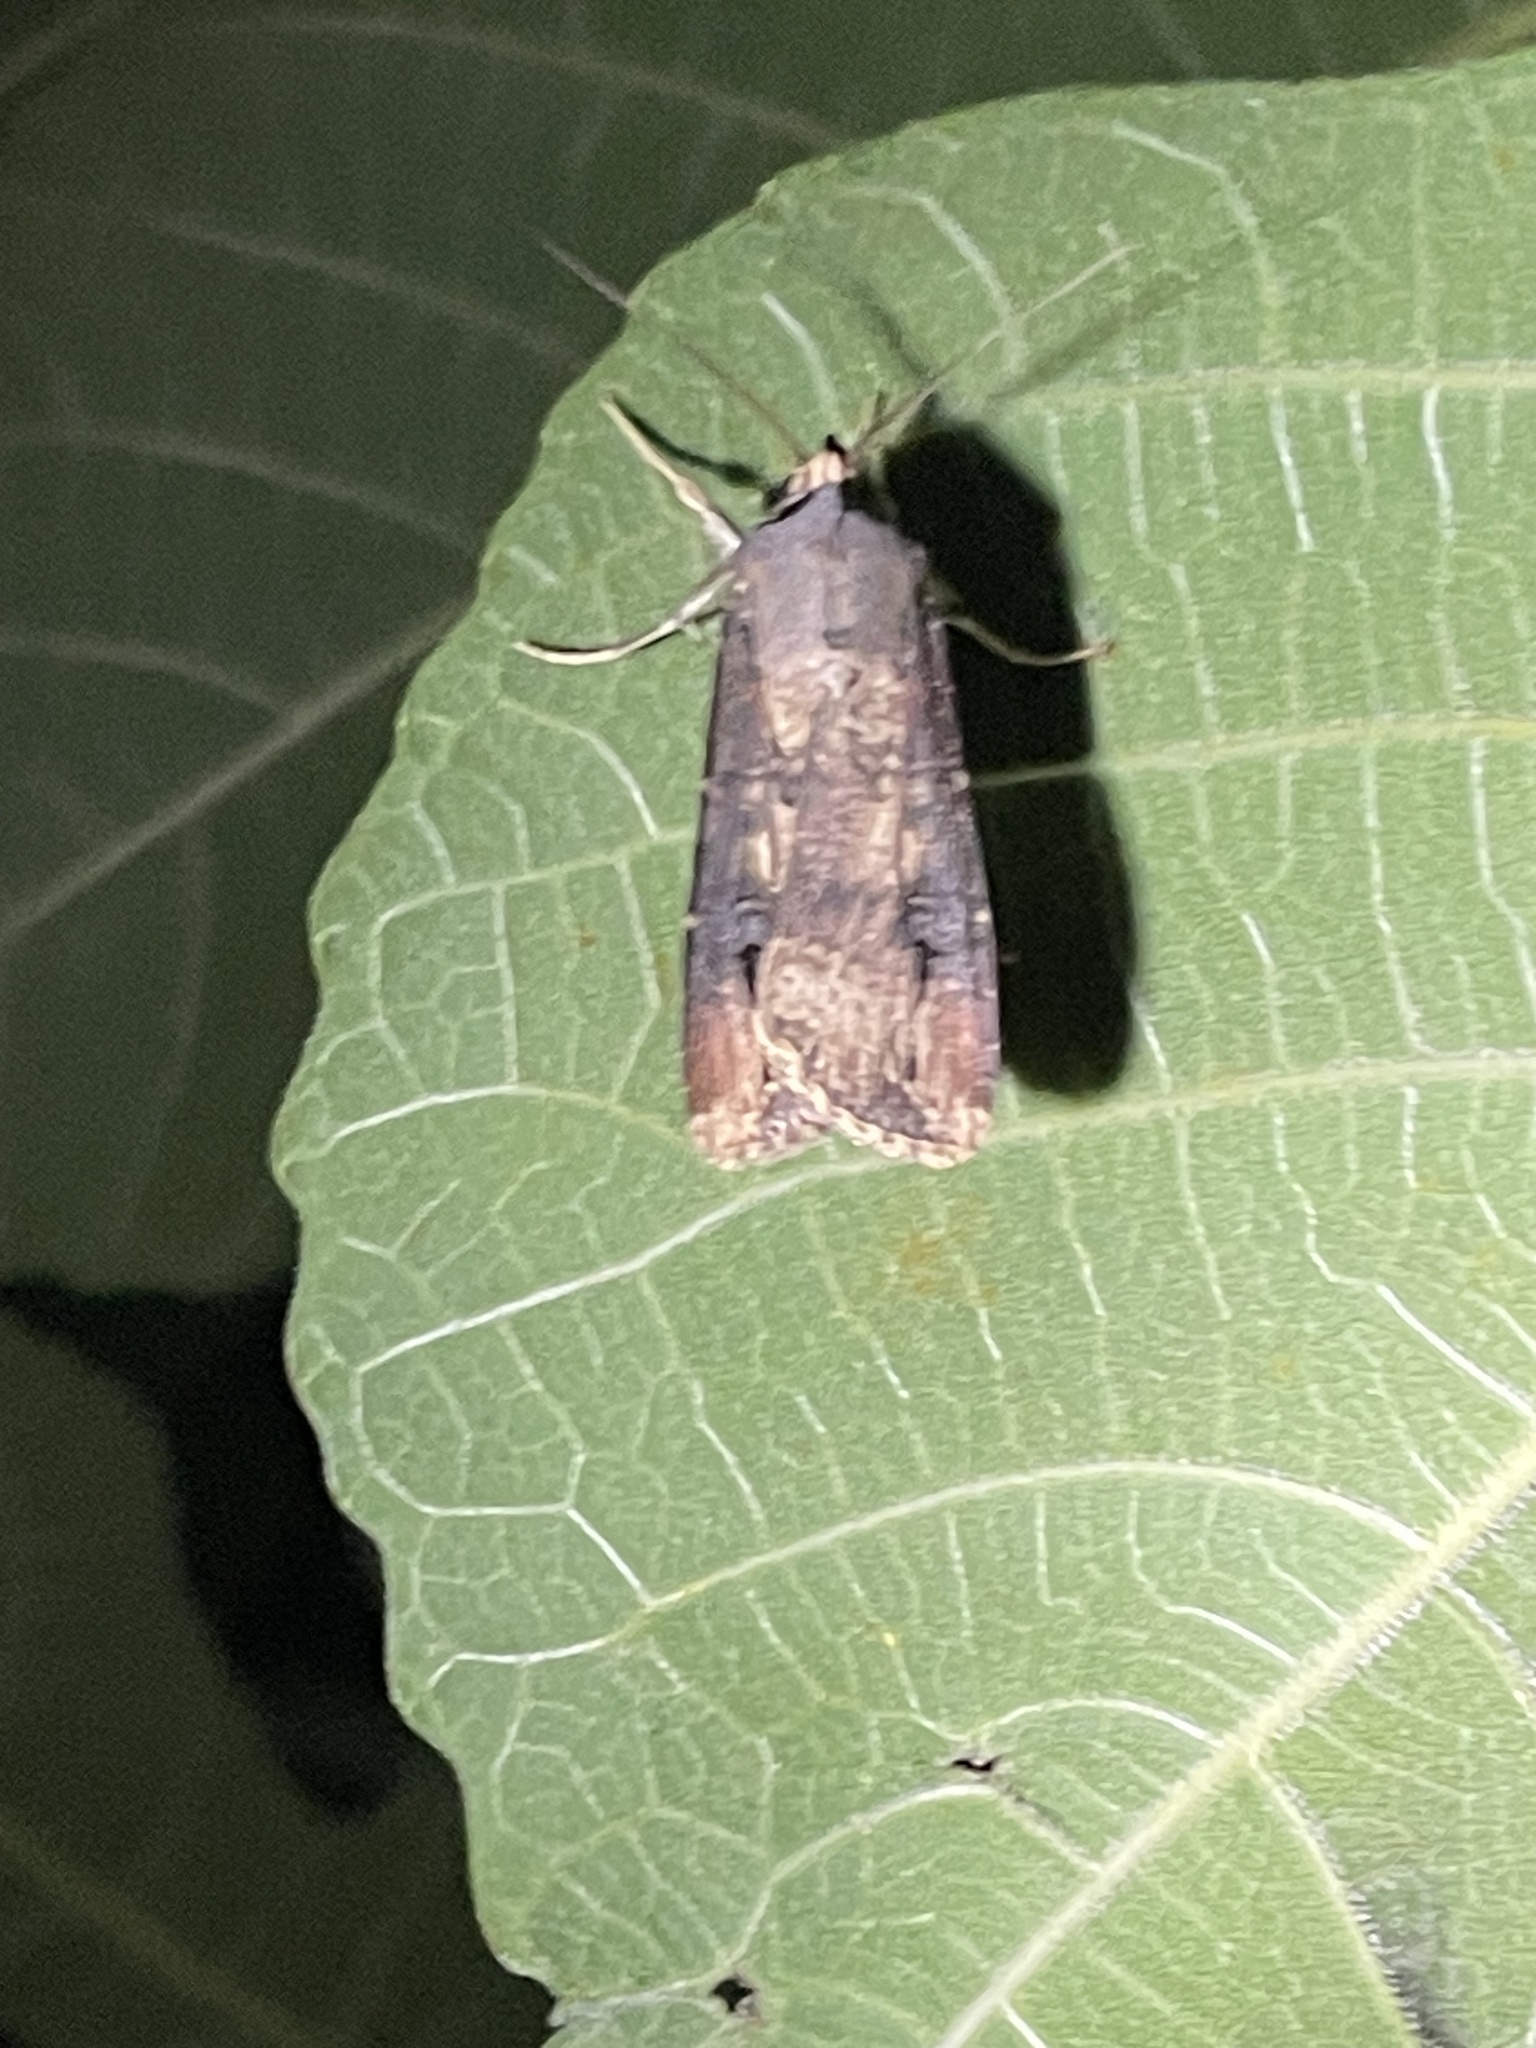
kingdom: Animalia
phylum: Arthropoda
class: Insecta
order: Lepidoptera
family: Noctuidae
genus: Agrotis
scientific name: Agrotis ipsilon
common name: Dark sword-grass
